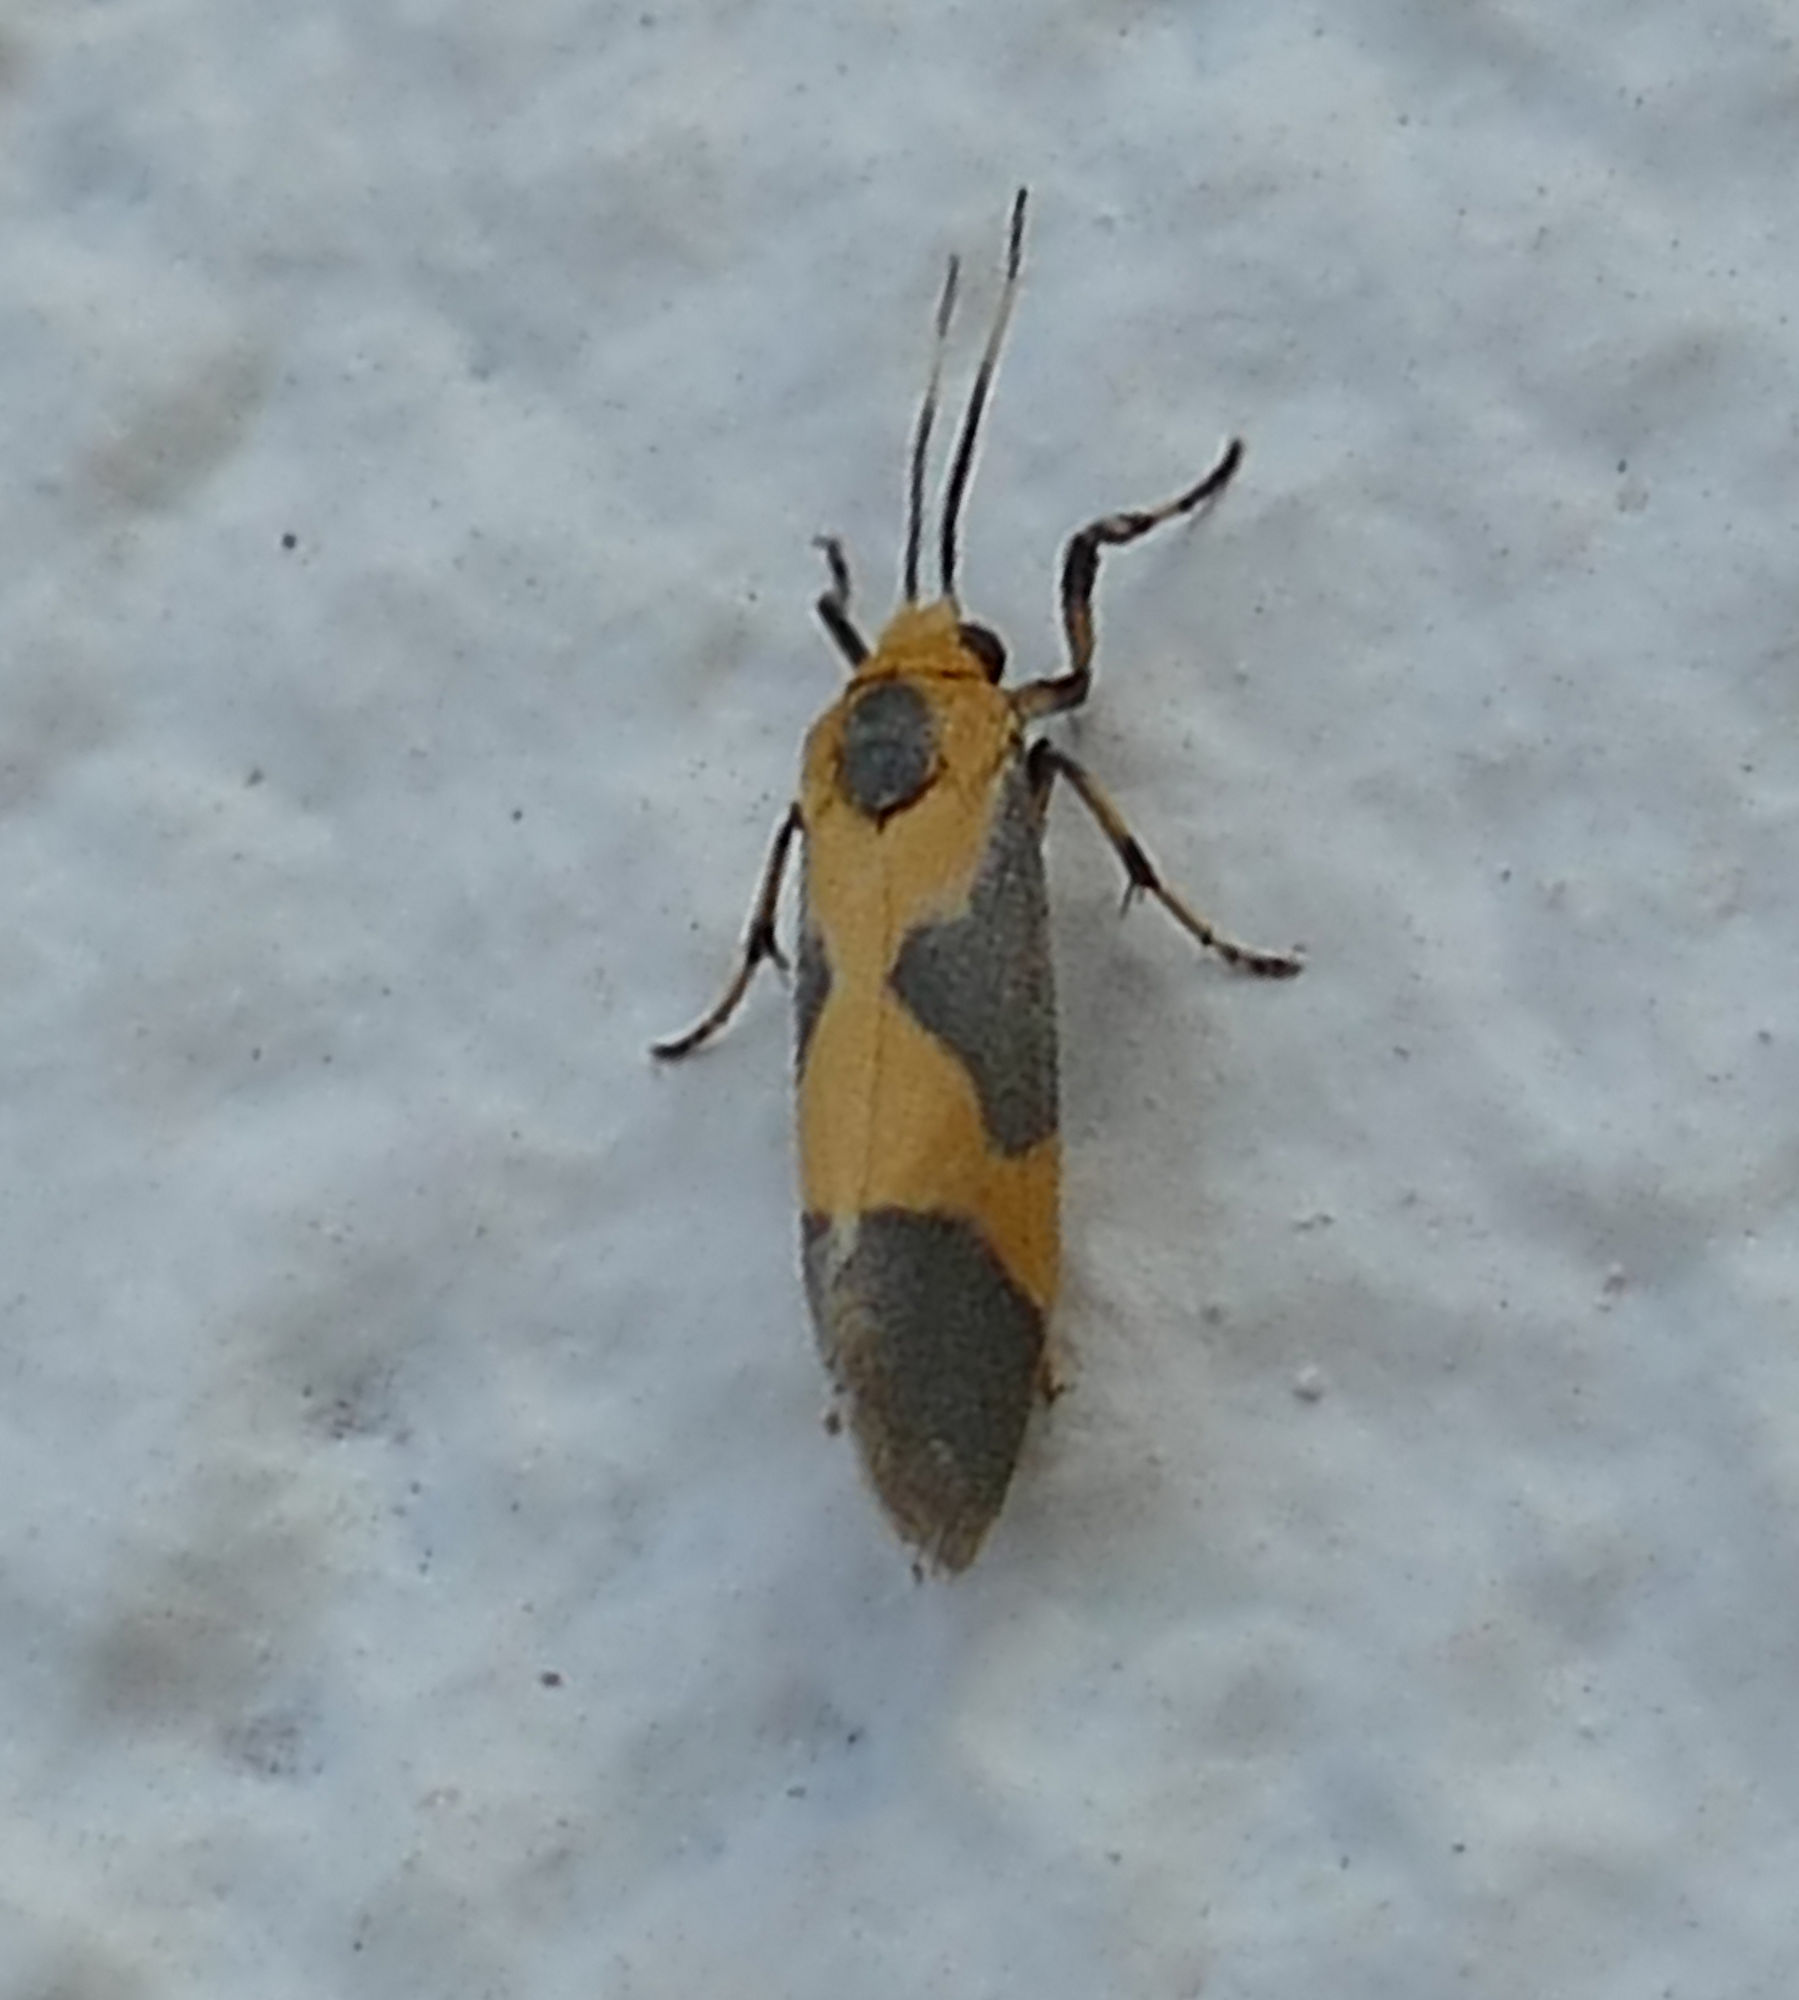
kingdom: Animalia
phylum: Arthropoda
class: Insecta
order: Lepidoptera
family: Erebidae
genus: Cisthene
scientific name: Cisthene unifascia
